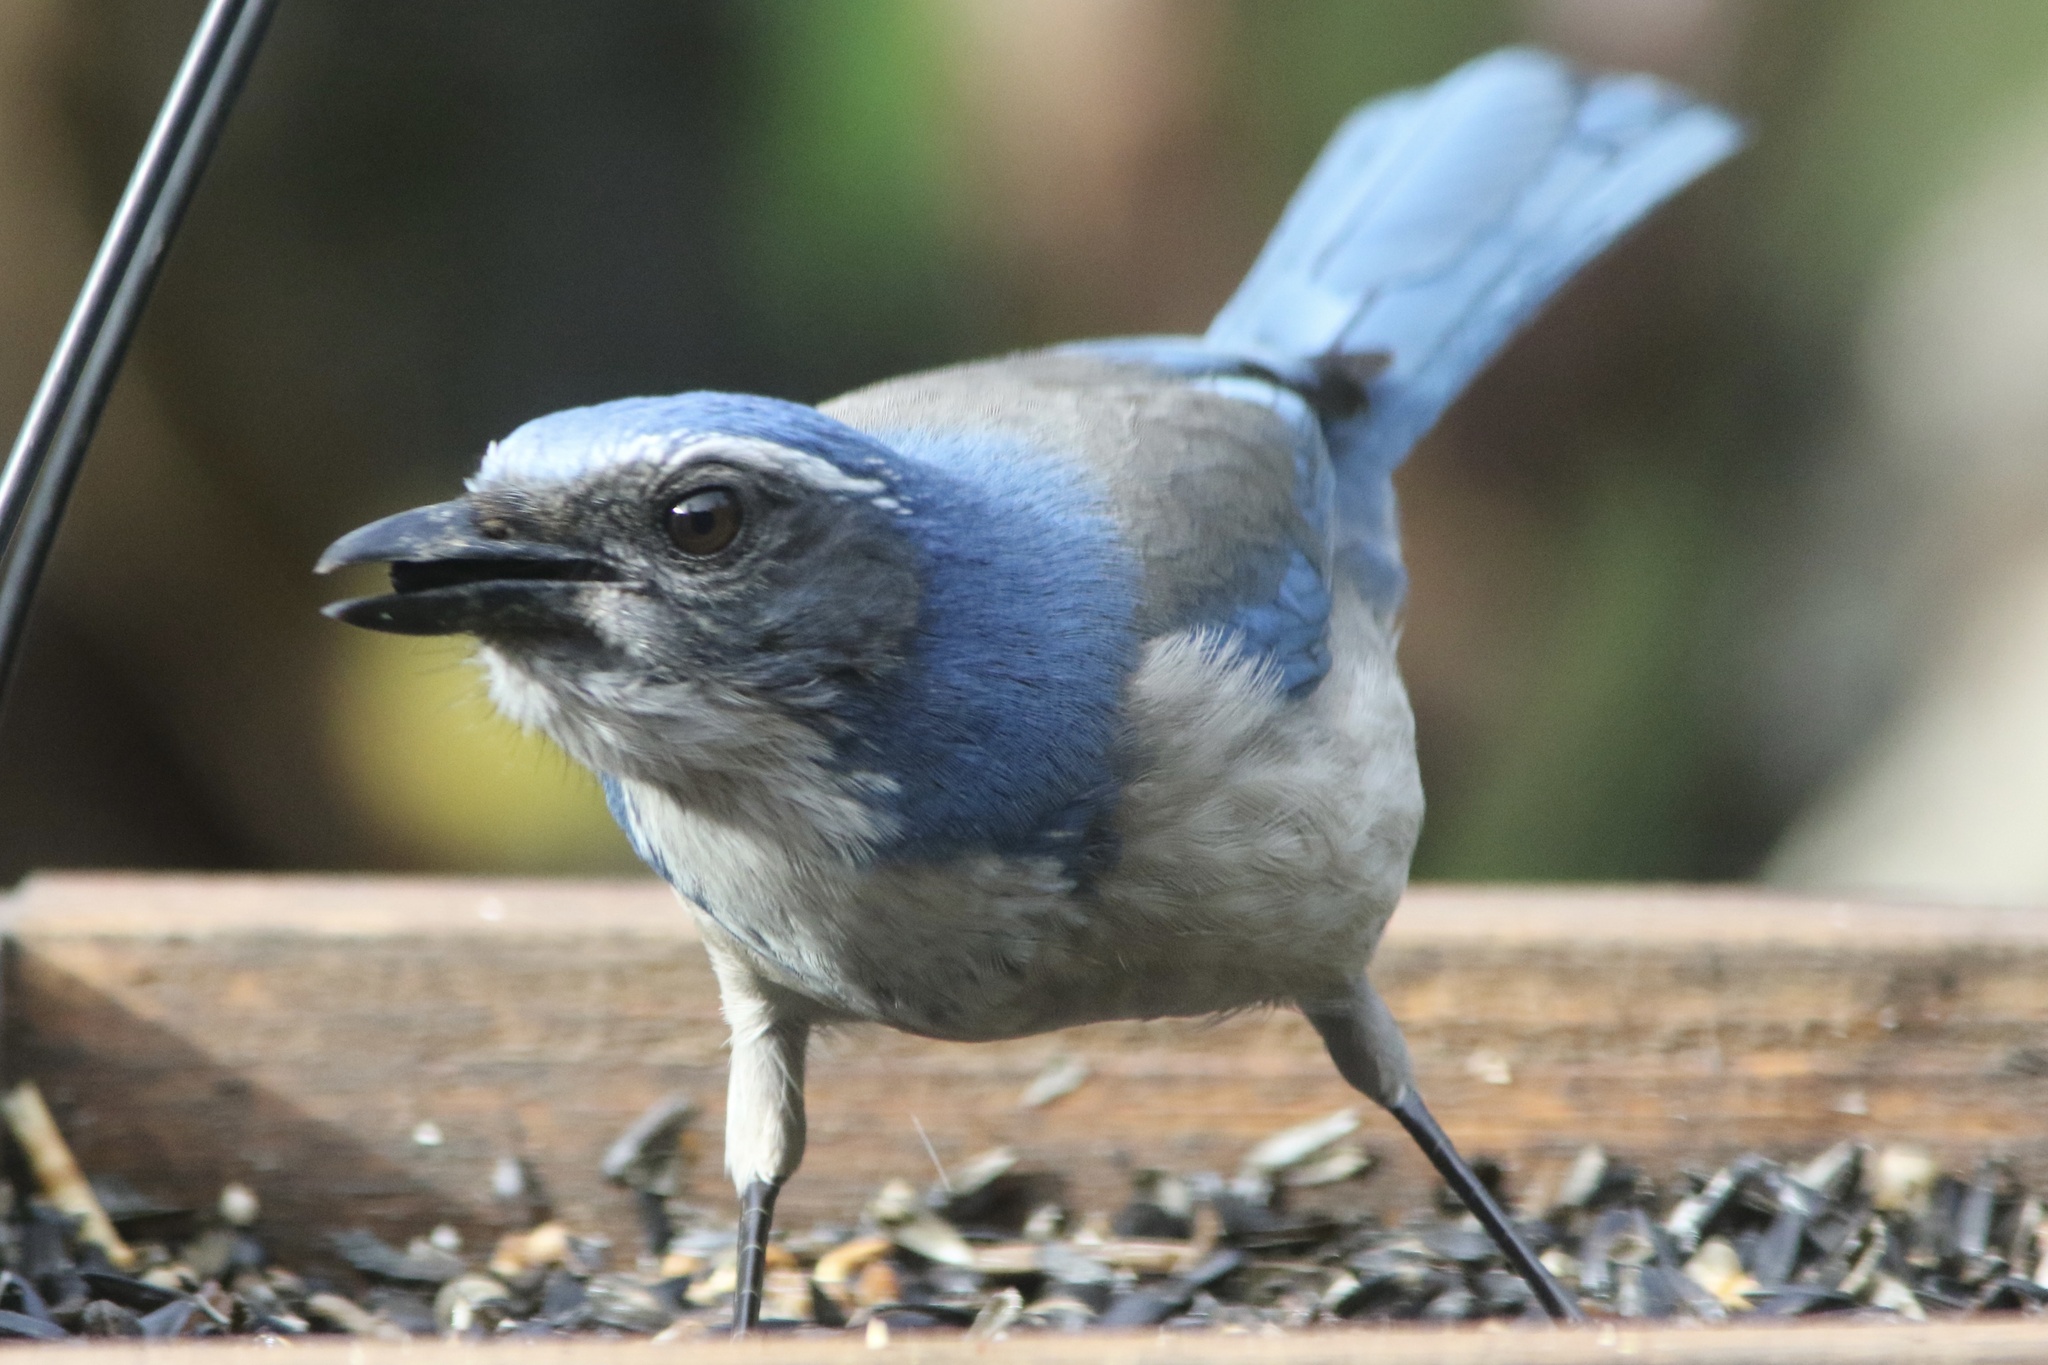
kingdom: Animalia
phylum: Chordata
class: Aves
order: Passeriformes
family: Corvidae
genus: Aphelocoma
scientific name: Aphelocoma californica
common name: California scrub-jay
